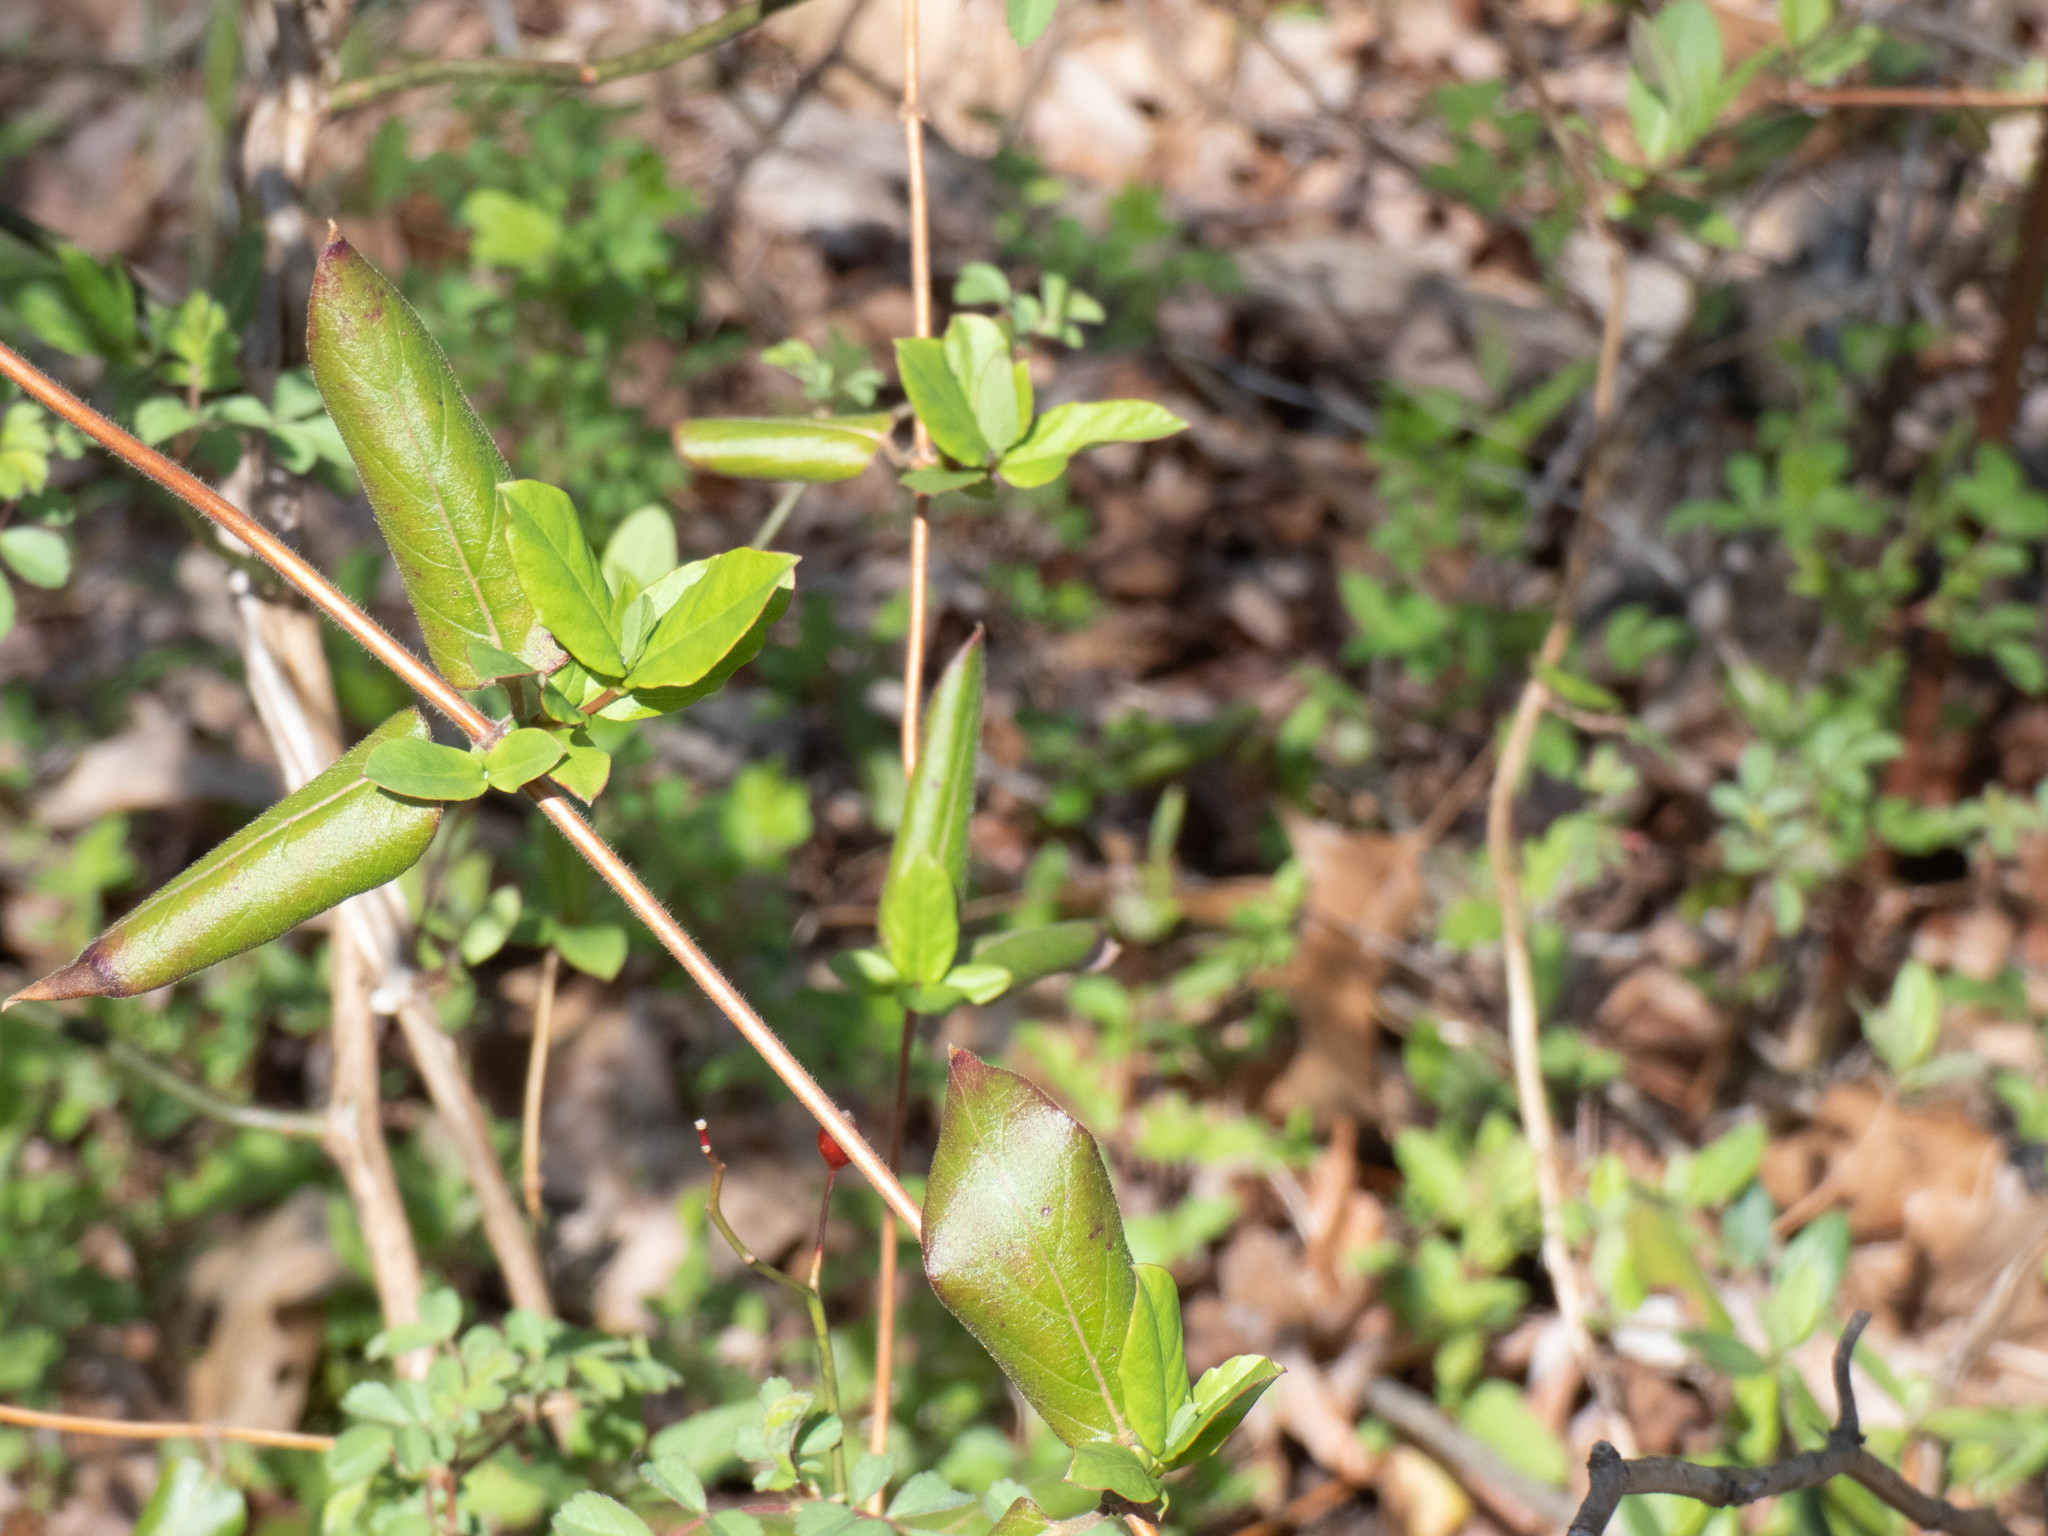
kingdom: Plantae
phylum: Tracheophyta
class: Magnoliopsida
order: Dipsacales
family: Caprifoliaceae
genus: Lonicera
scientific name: Lonicera japonica
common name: Japanese honeysuckle
